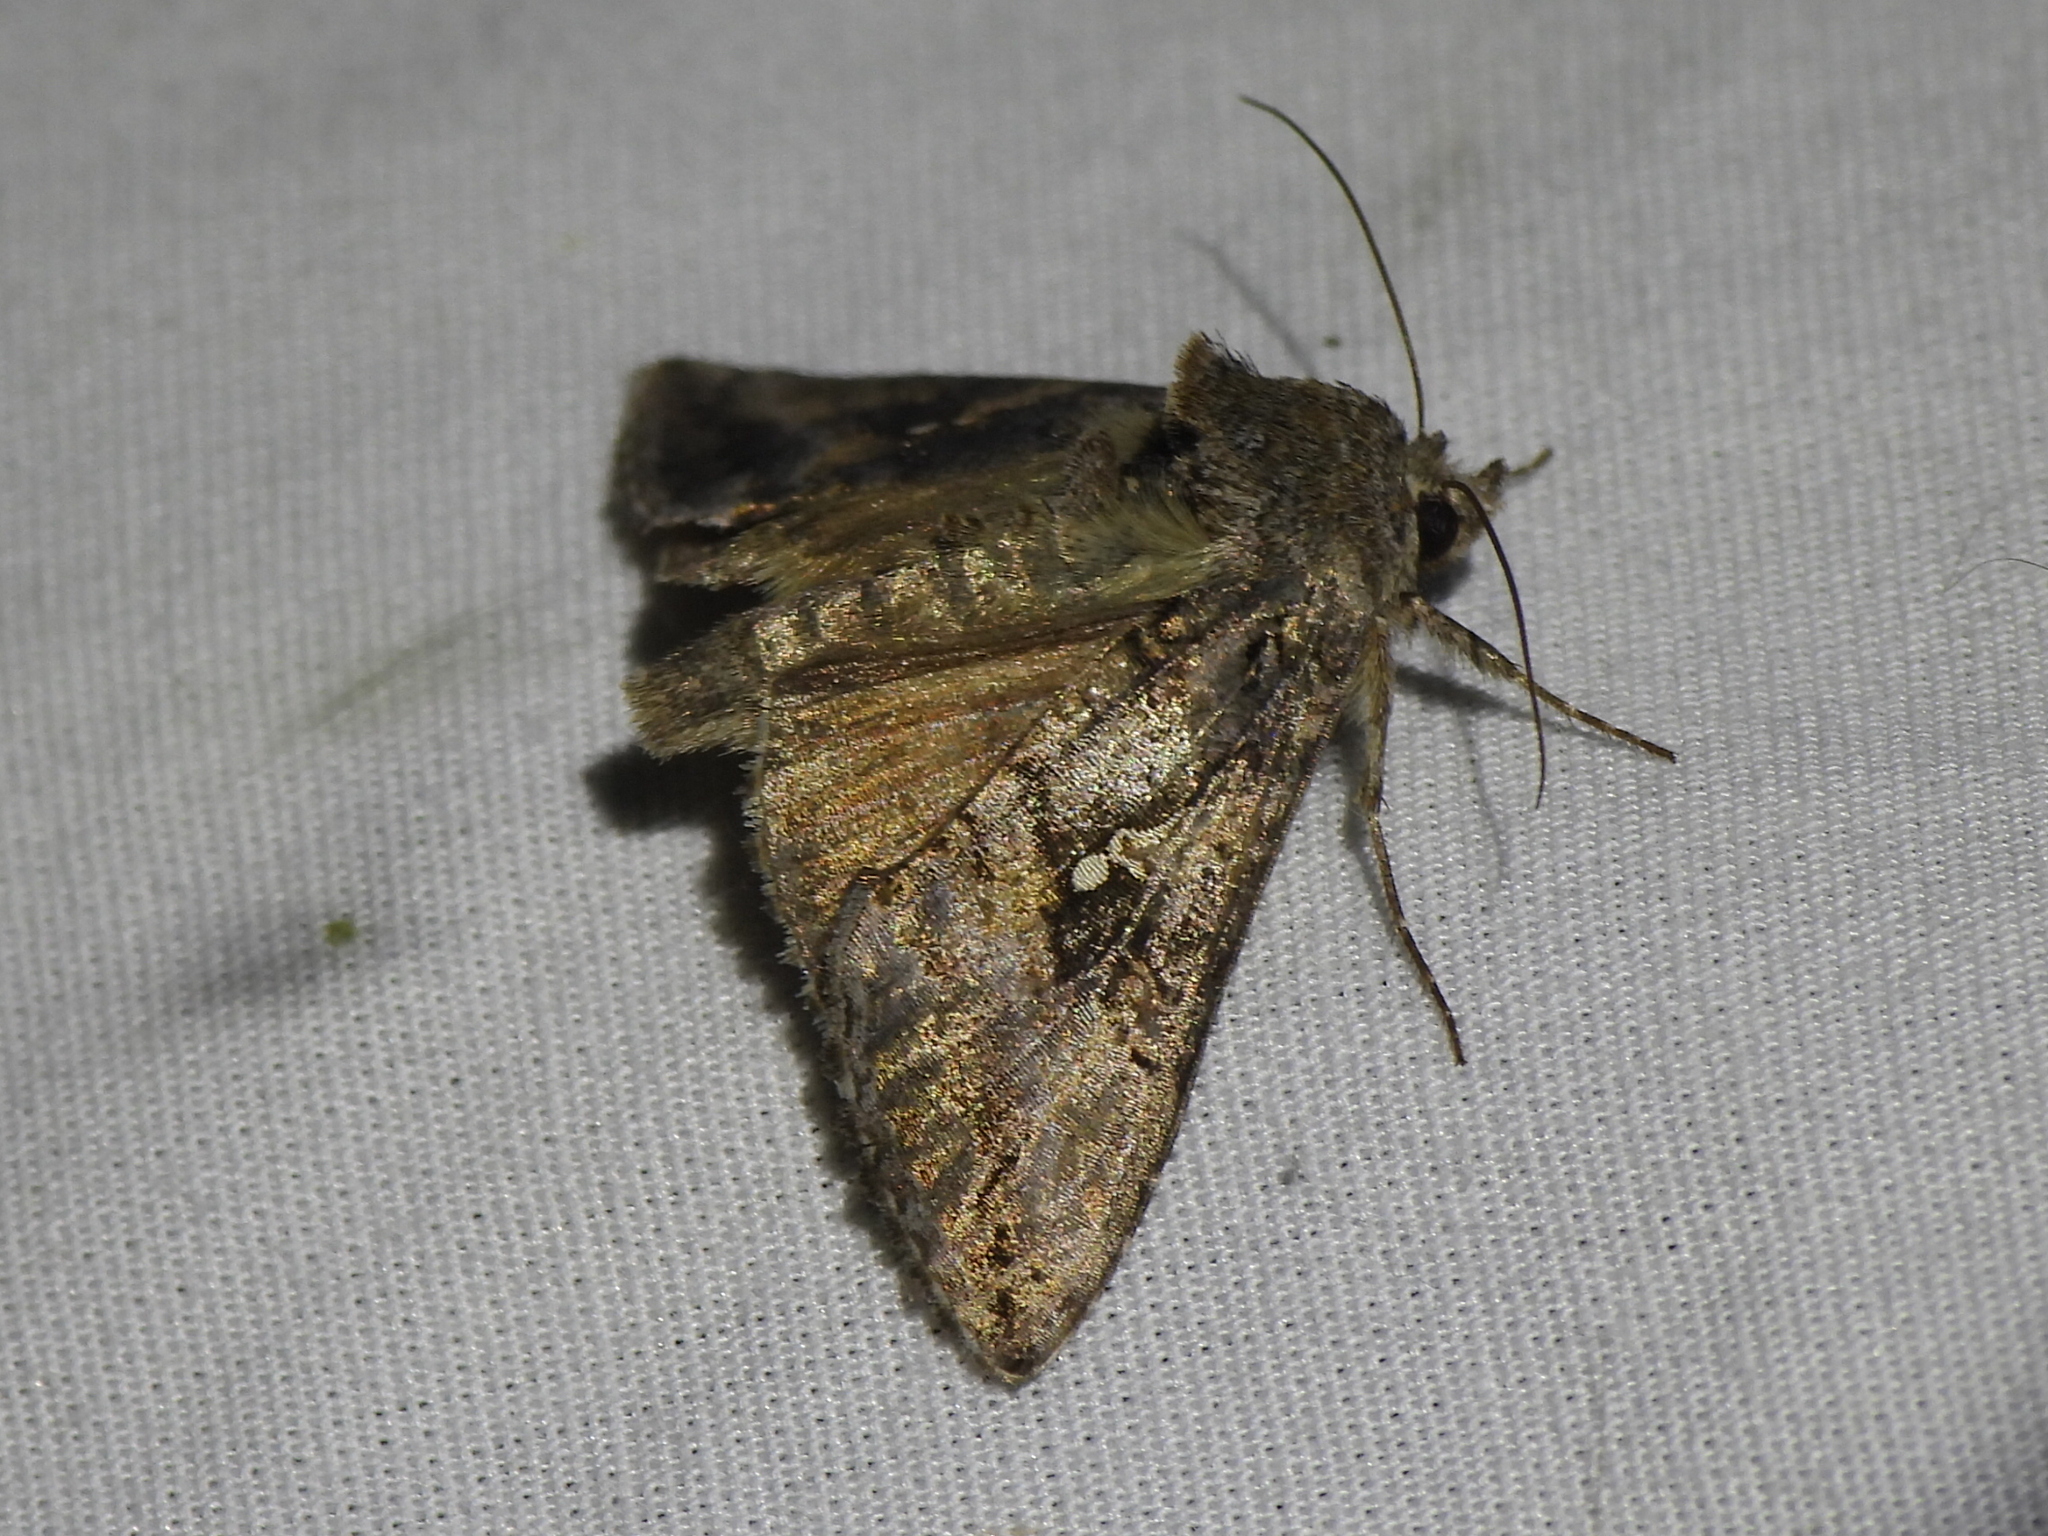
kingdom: Animalia
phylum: Arthropoda
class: Insecta
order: Lepidoptera
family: Noctuidae
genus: Rachiplusia
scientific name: Rachiplusia ou
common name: Gray looper moth
